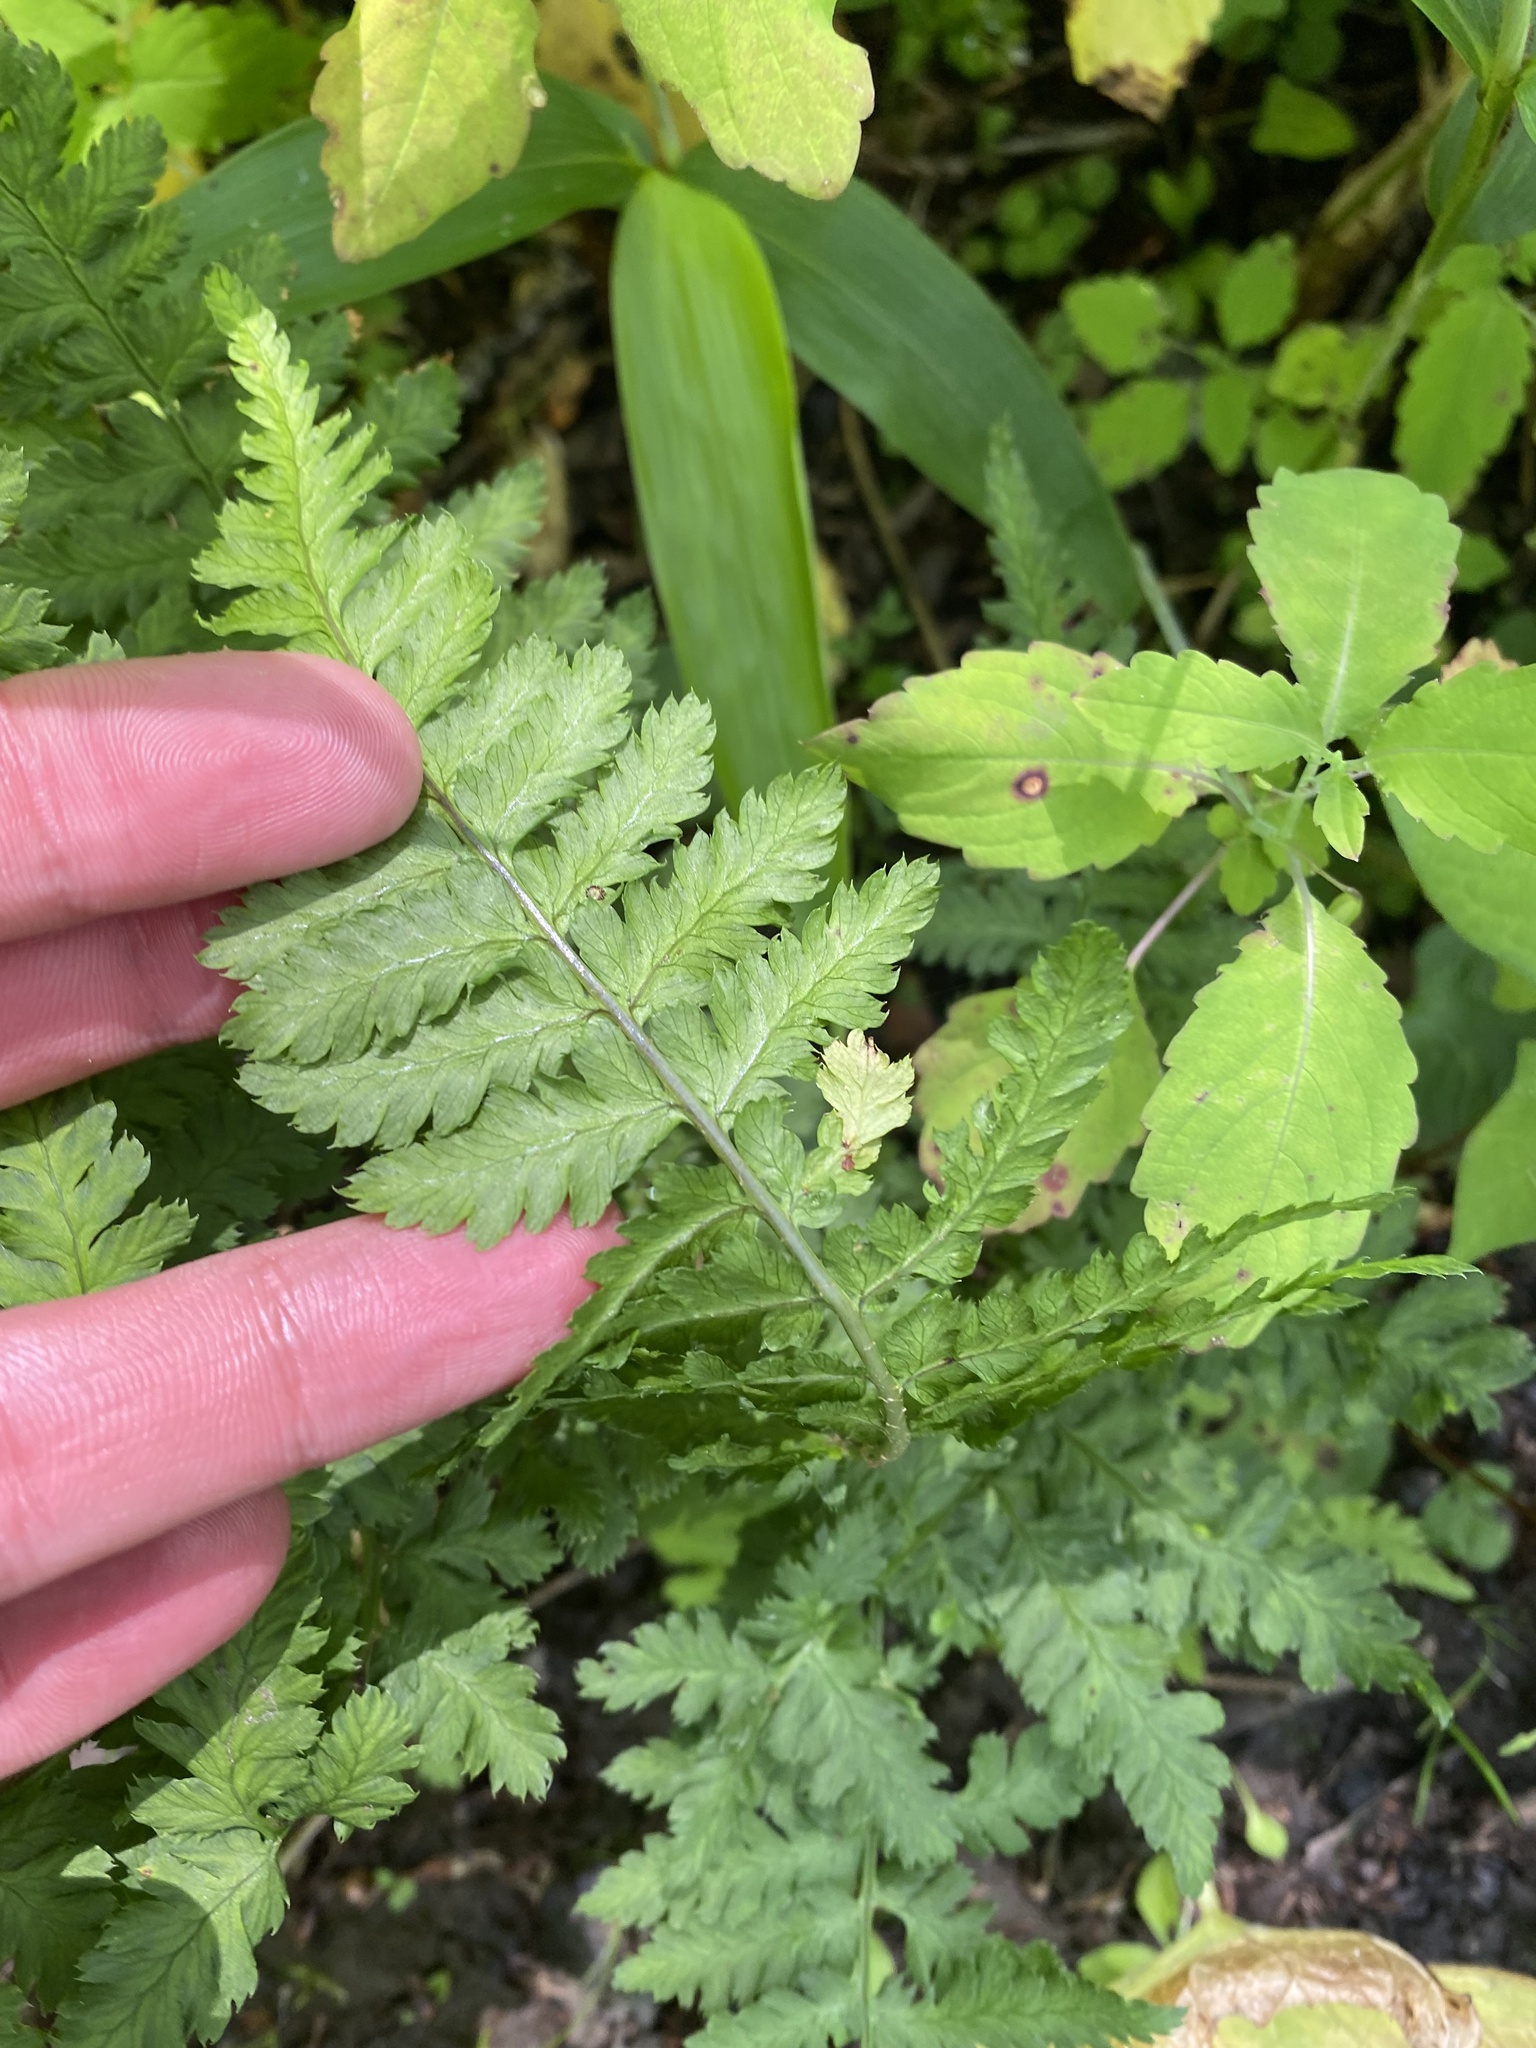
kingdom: Plantae
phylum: Tracheophyta
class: Polypodiopsida
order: Polypodiales
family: Dryopteridaceae
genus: Dryopteris
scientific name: Dryopteris expansa
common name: Northern buckler fern
